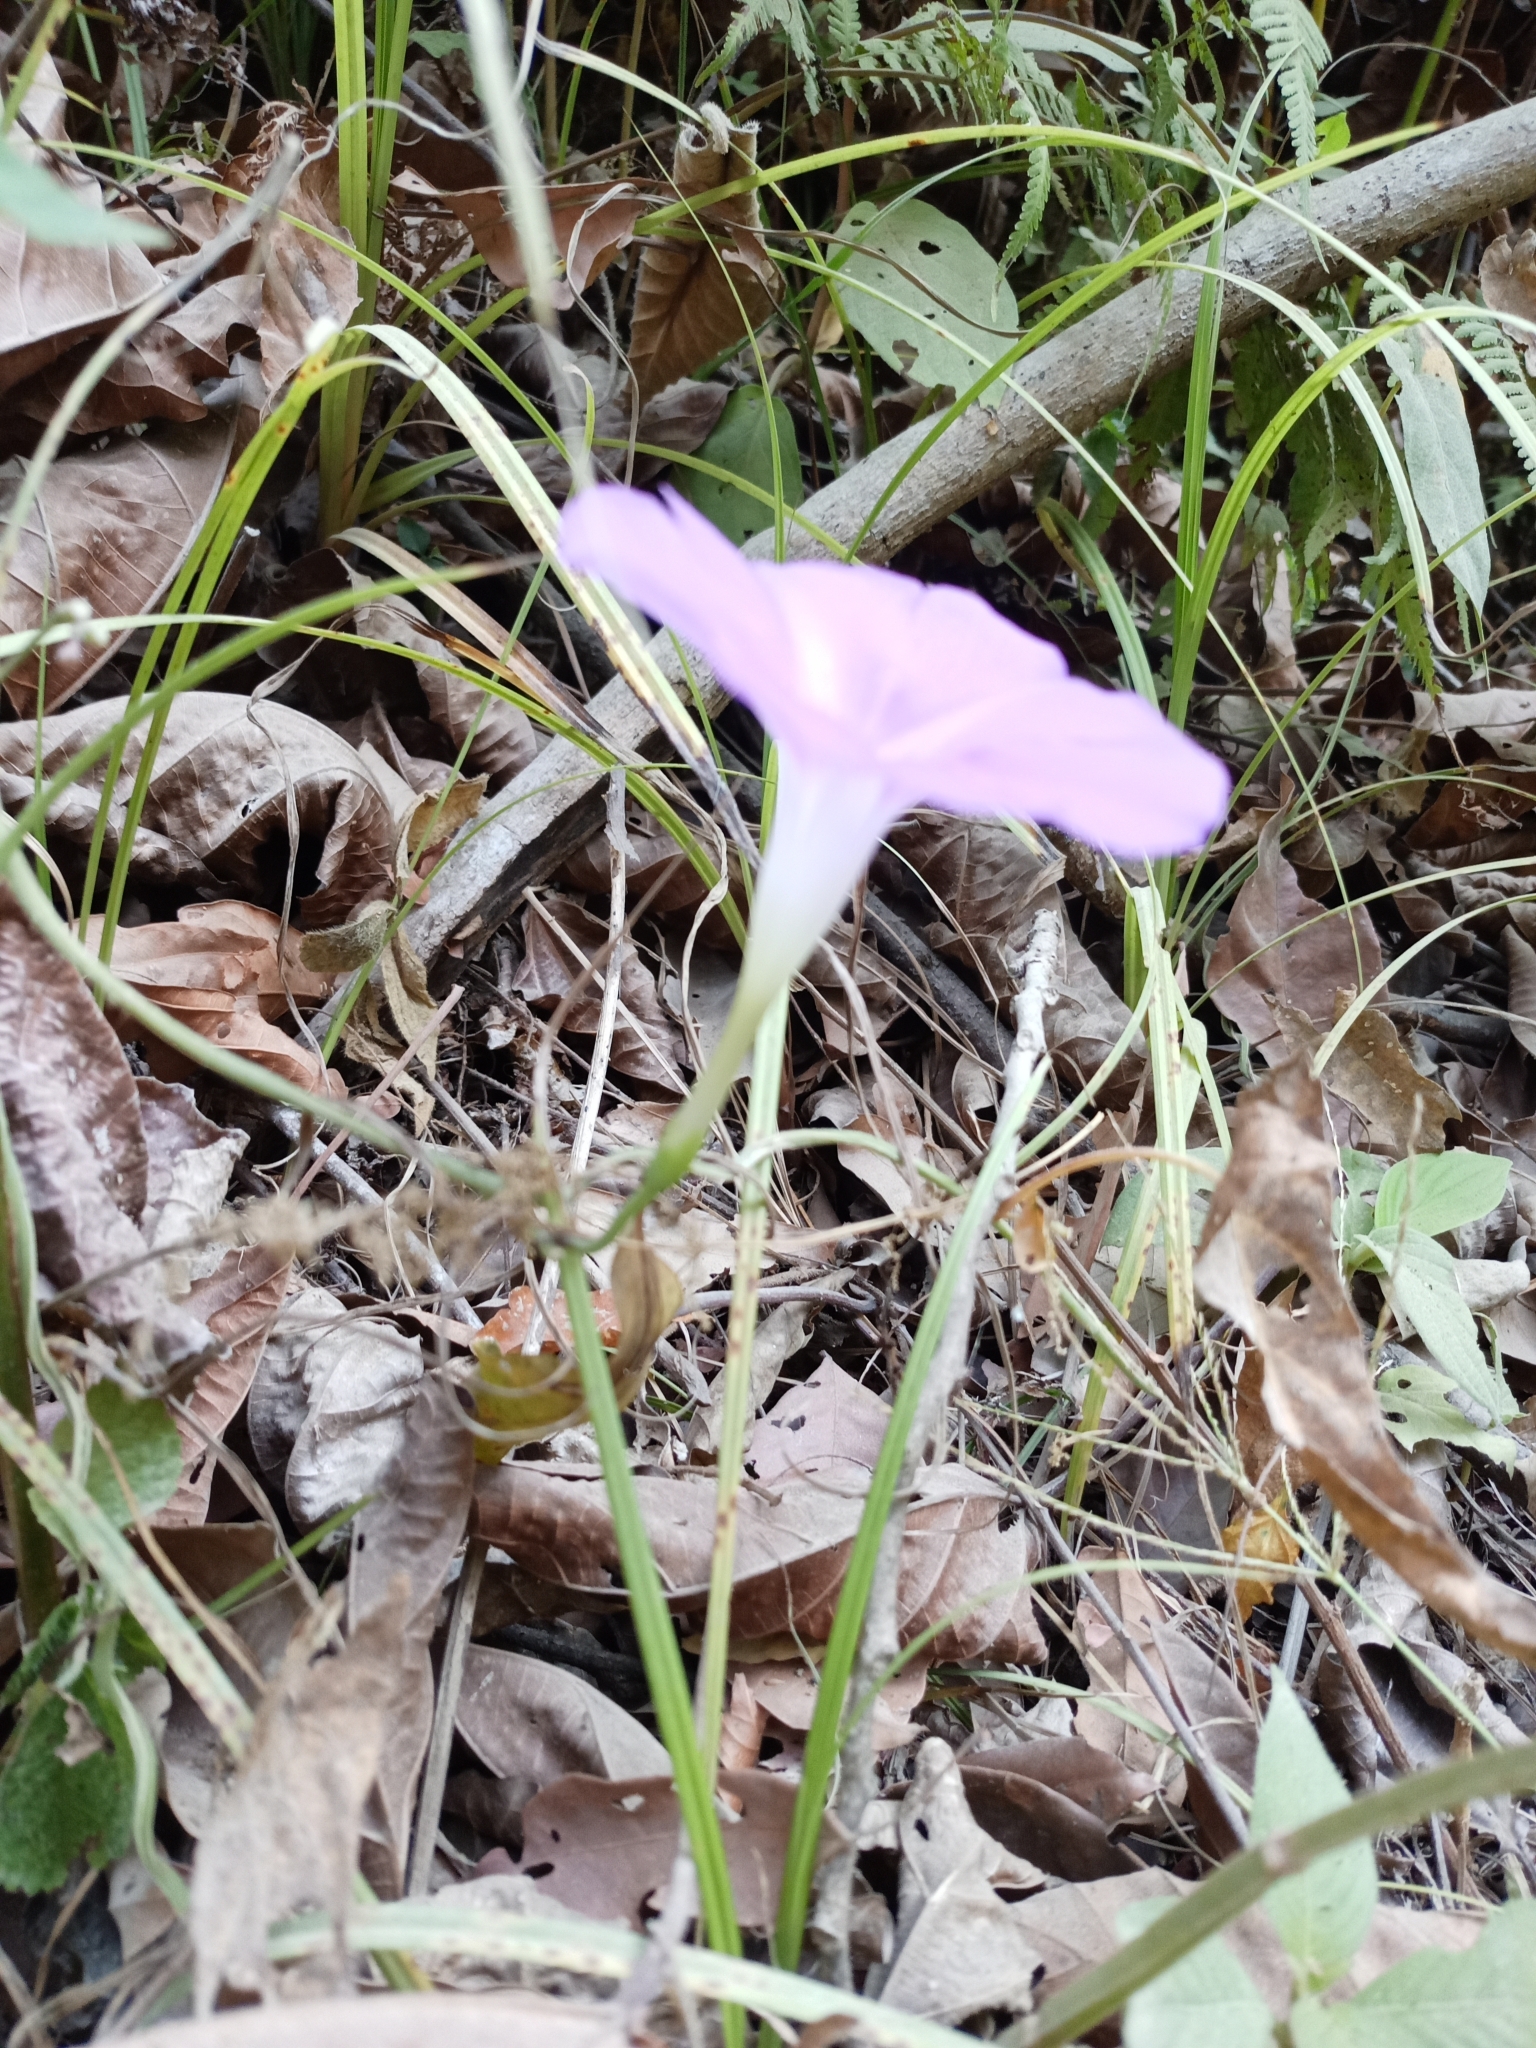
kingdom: Plantae
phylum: Tracheophyta
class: Magnoliopsida
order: Solanales
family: Convolvulaceae
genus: Ipomoea
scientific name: Ipomoea dumosa
